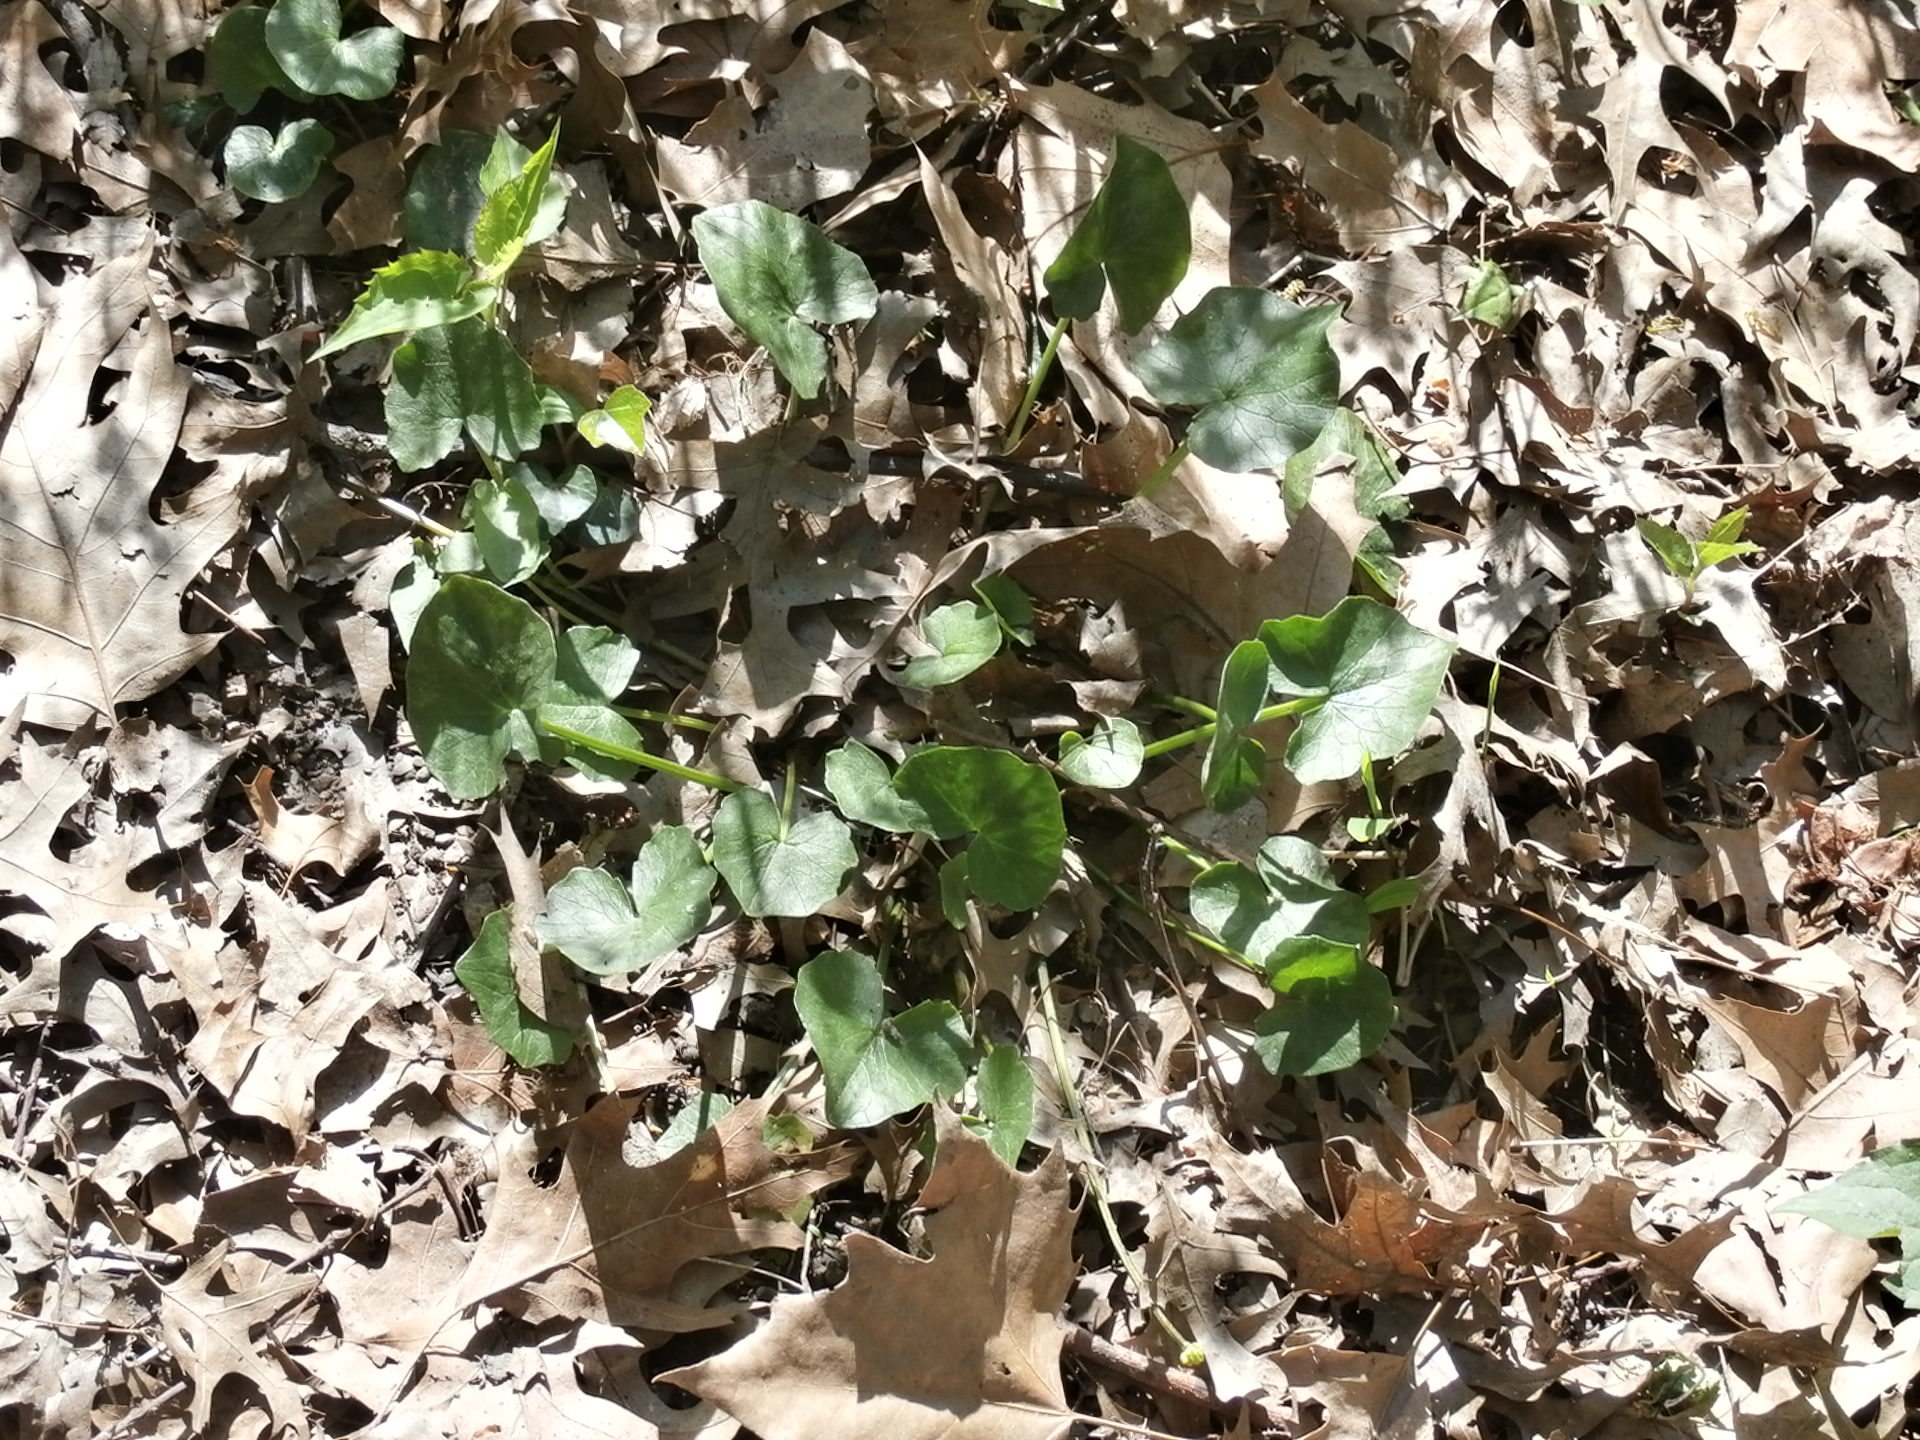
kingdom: Plantae
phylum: Tracheophyta
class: Magnoliopsida
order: Ranunculales
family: Ranunculaceae
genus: Ficaria
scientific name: Ficaria verna
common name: Lesser celandine
